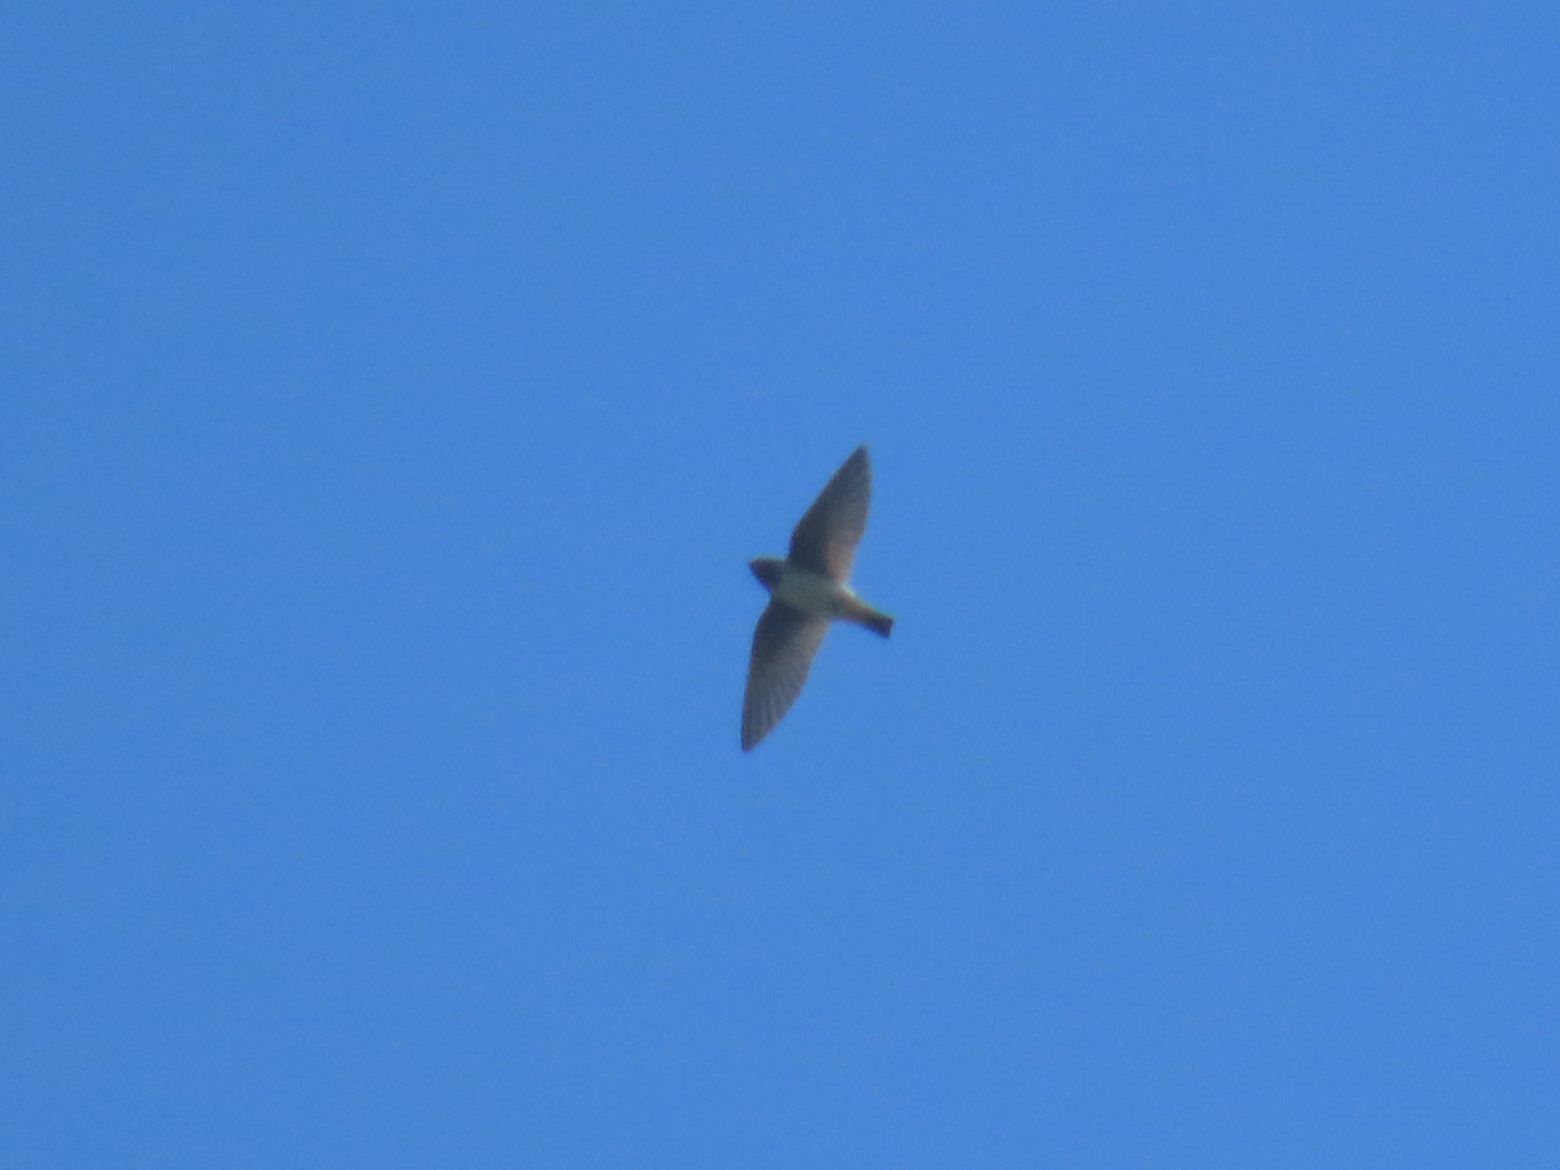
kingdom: Animalia
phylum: Chordata
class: Aves
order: Passeriformes
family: Hirundinidae
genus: Petrochelidon
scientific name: Petrochelidon pyrrhonota
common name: American cliff swallow
